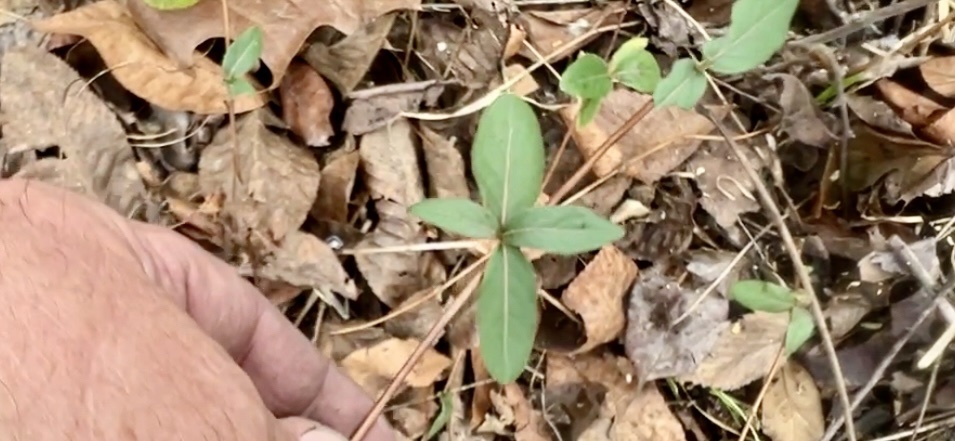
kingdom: Plantae
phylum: Tracheophyta
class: Magnoliopsida
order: Dipsacales
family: Caprifoliaceae
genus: Lonicera
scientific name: Lonicera japonica
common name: Japanese honeysuckle
